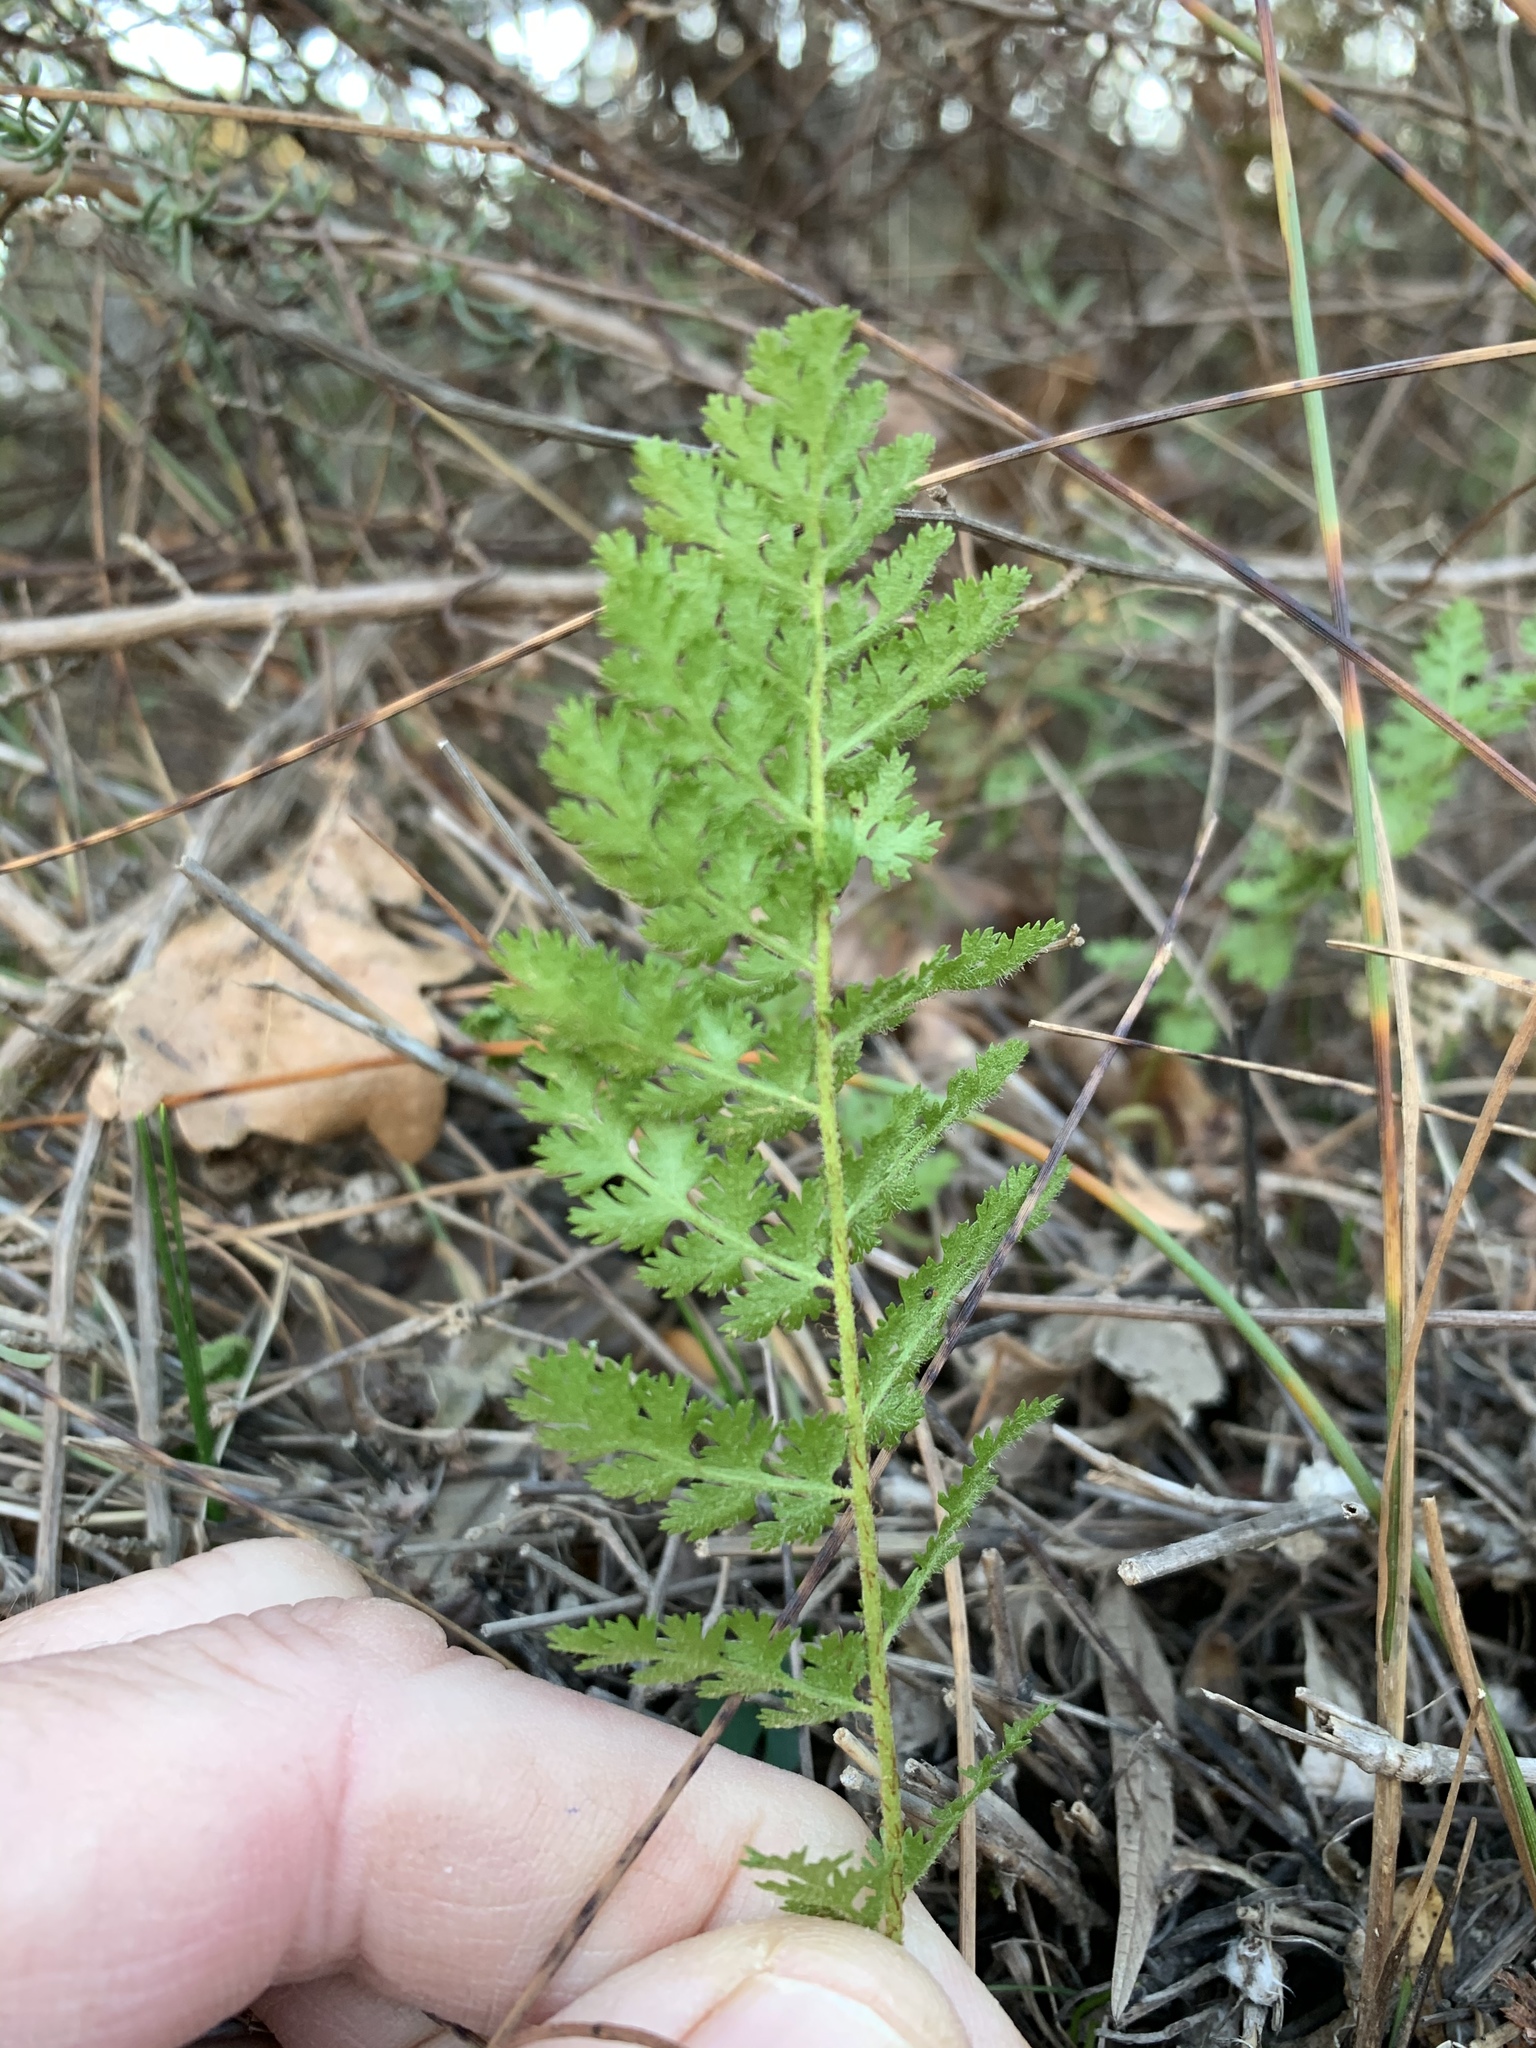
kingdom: Plantae
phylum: Tracheophyta
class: Polypodiopsida
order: Schizaeales
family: Anemiaceae
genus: Anemia
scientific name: Anemia caffrorum
